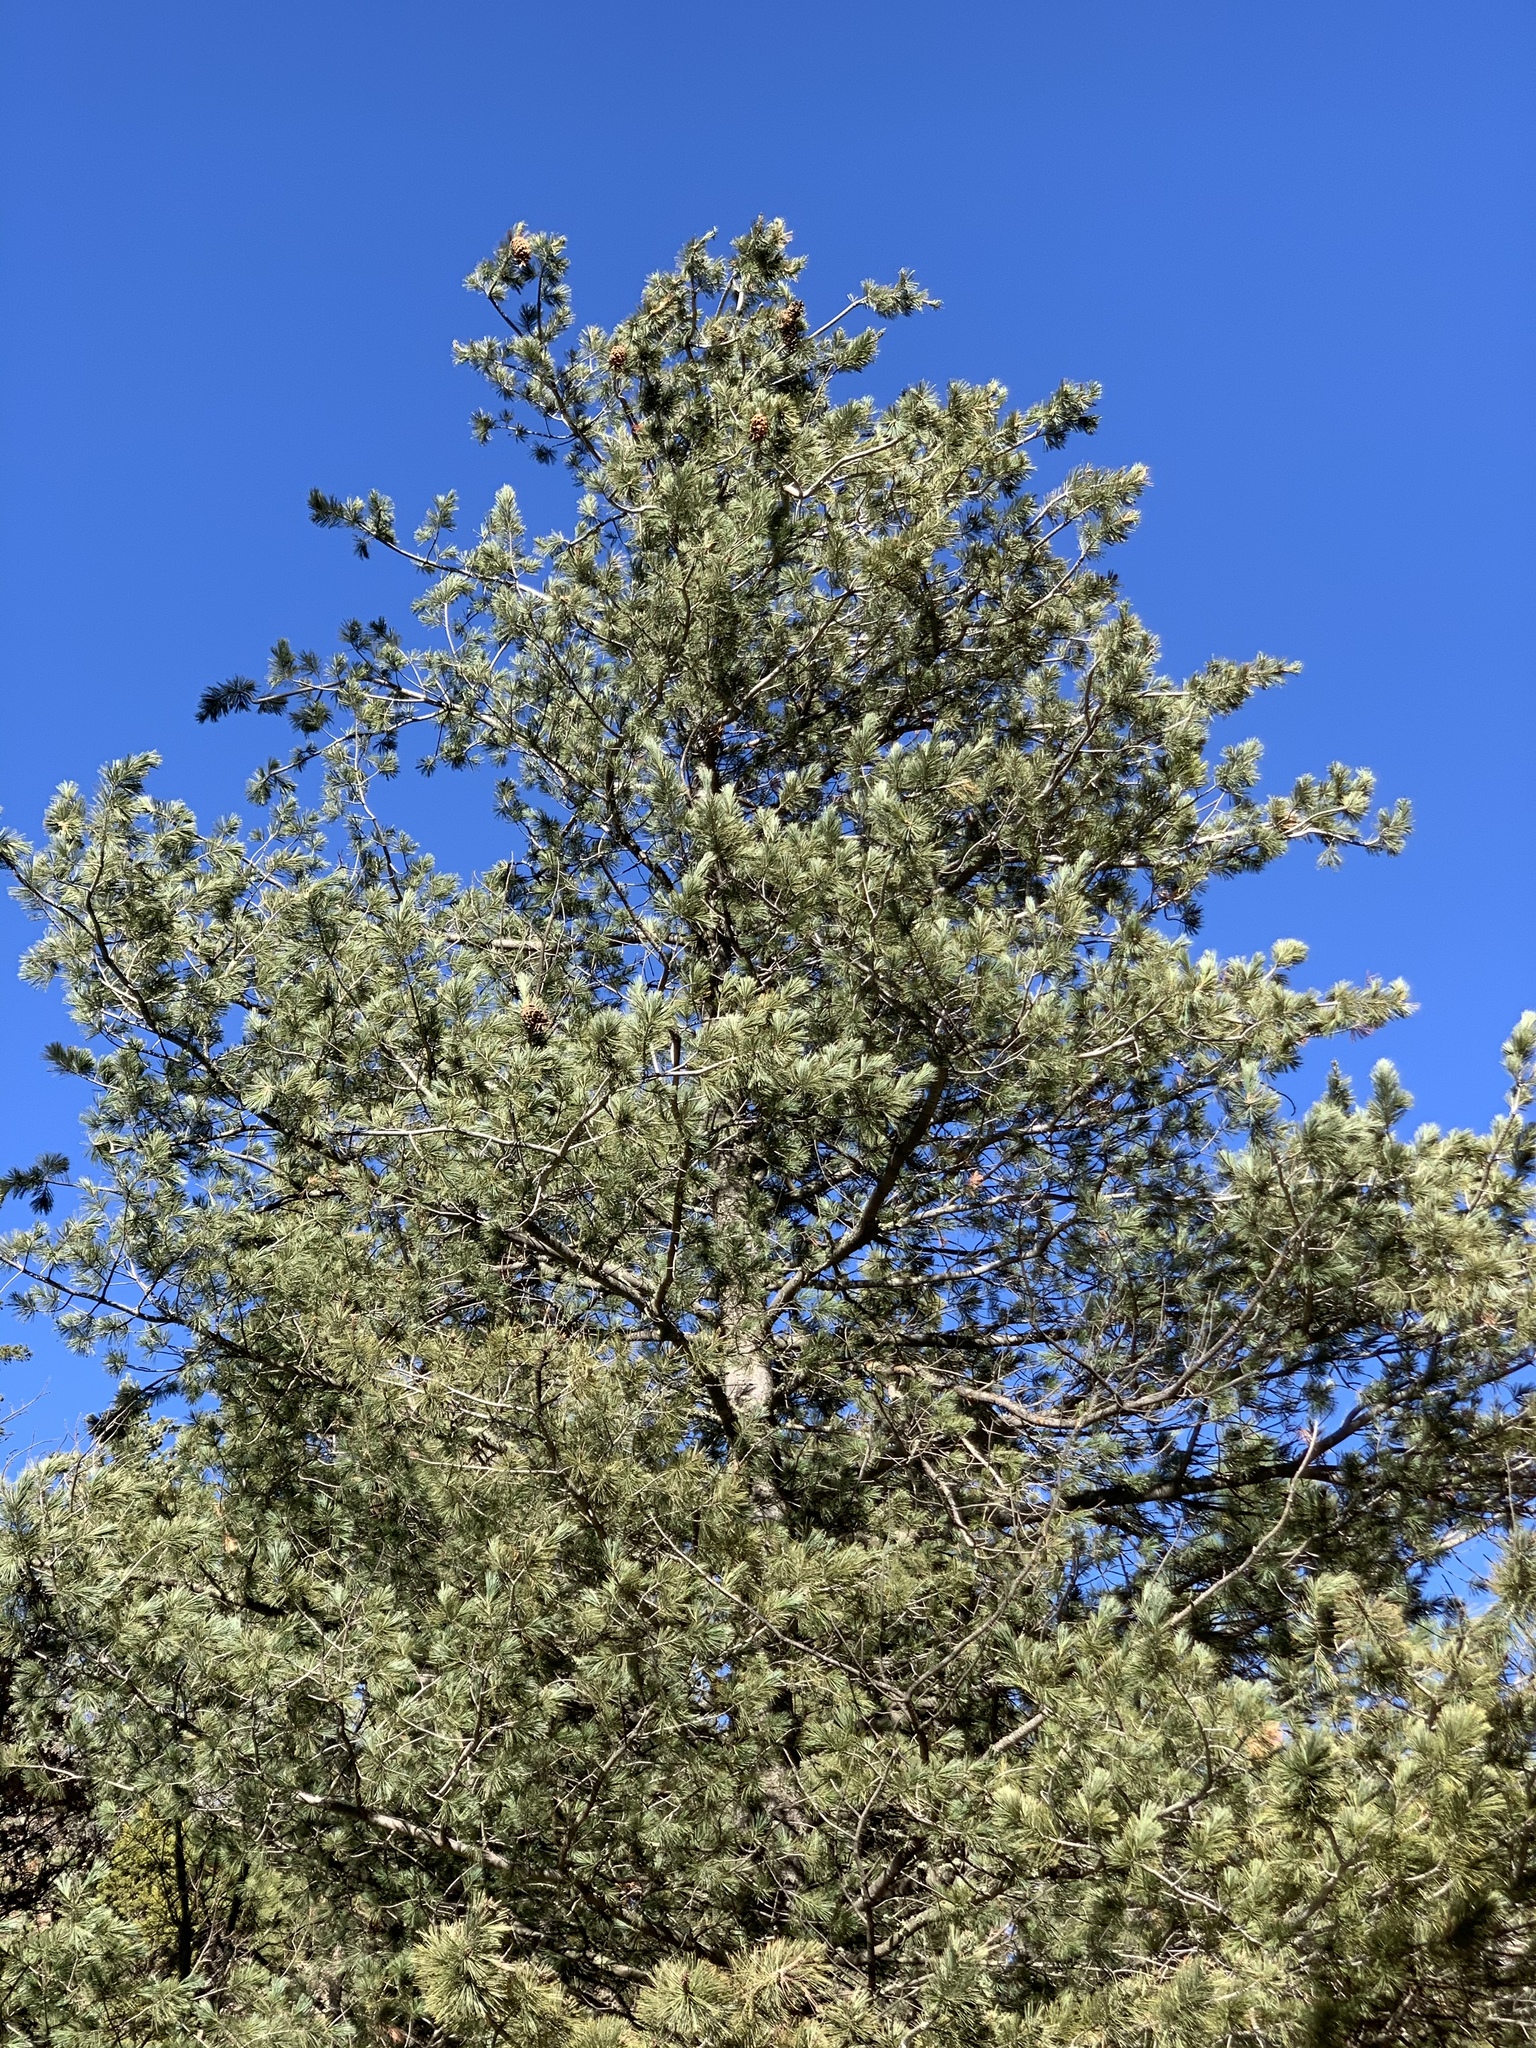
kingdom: Plantae
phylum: Tracheophyta
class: Pinopsida
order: Pinales
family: Pinaceae
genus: Pinus
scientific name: Pinus strobiformis
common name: Southwestern white pine
